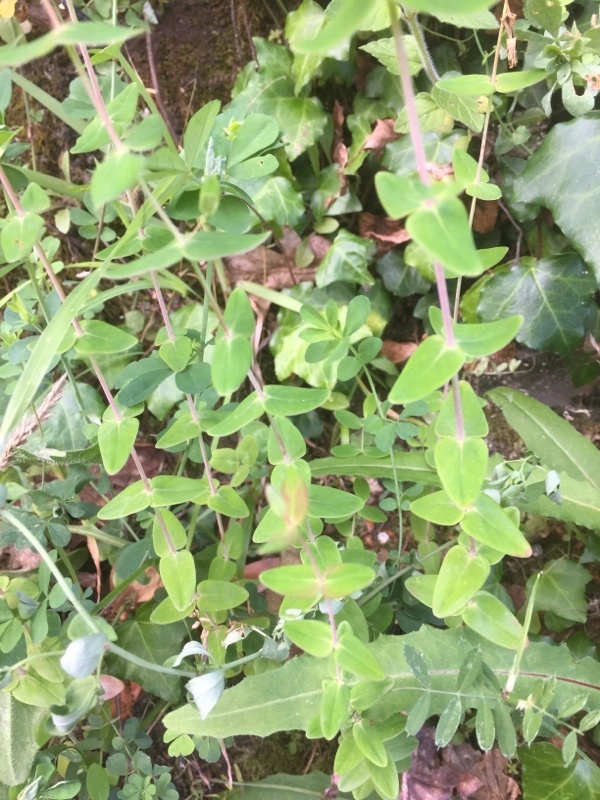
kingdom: Plantae
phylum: Tracheophyta
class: Magnoliopsida
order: Malpighiales
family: Hypericaceae
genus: Hypericum
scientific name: Hypericum pulchrum
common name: Slender st. john's-wort
